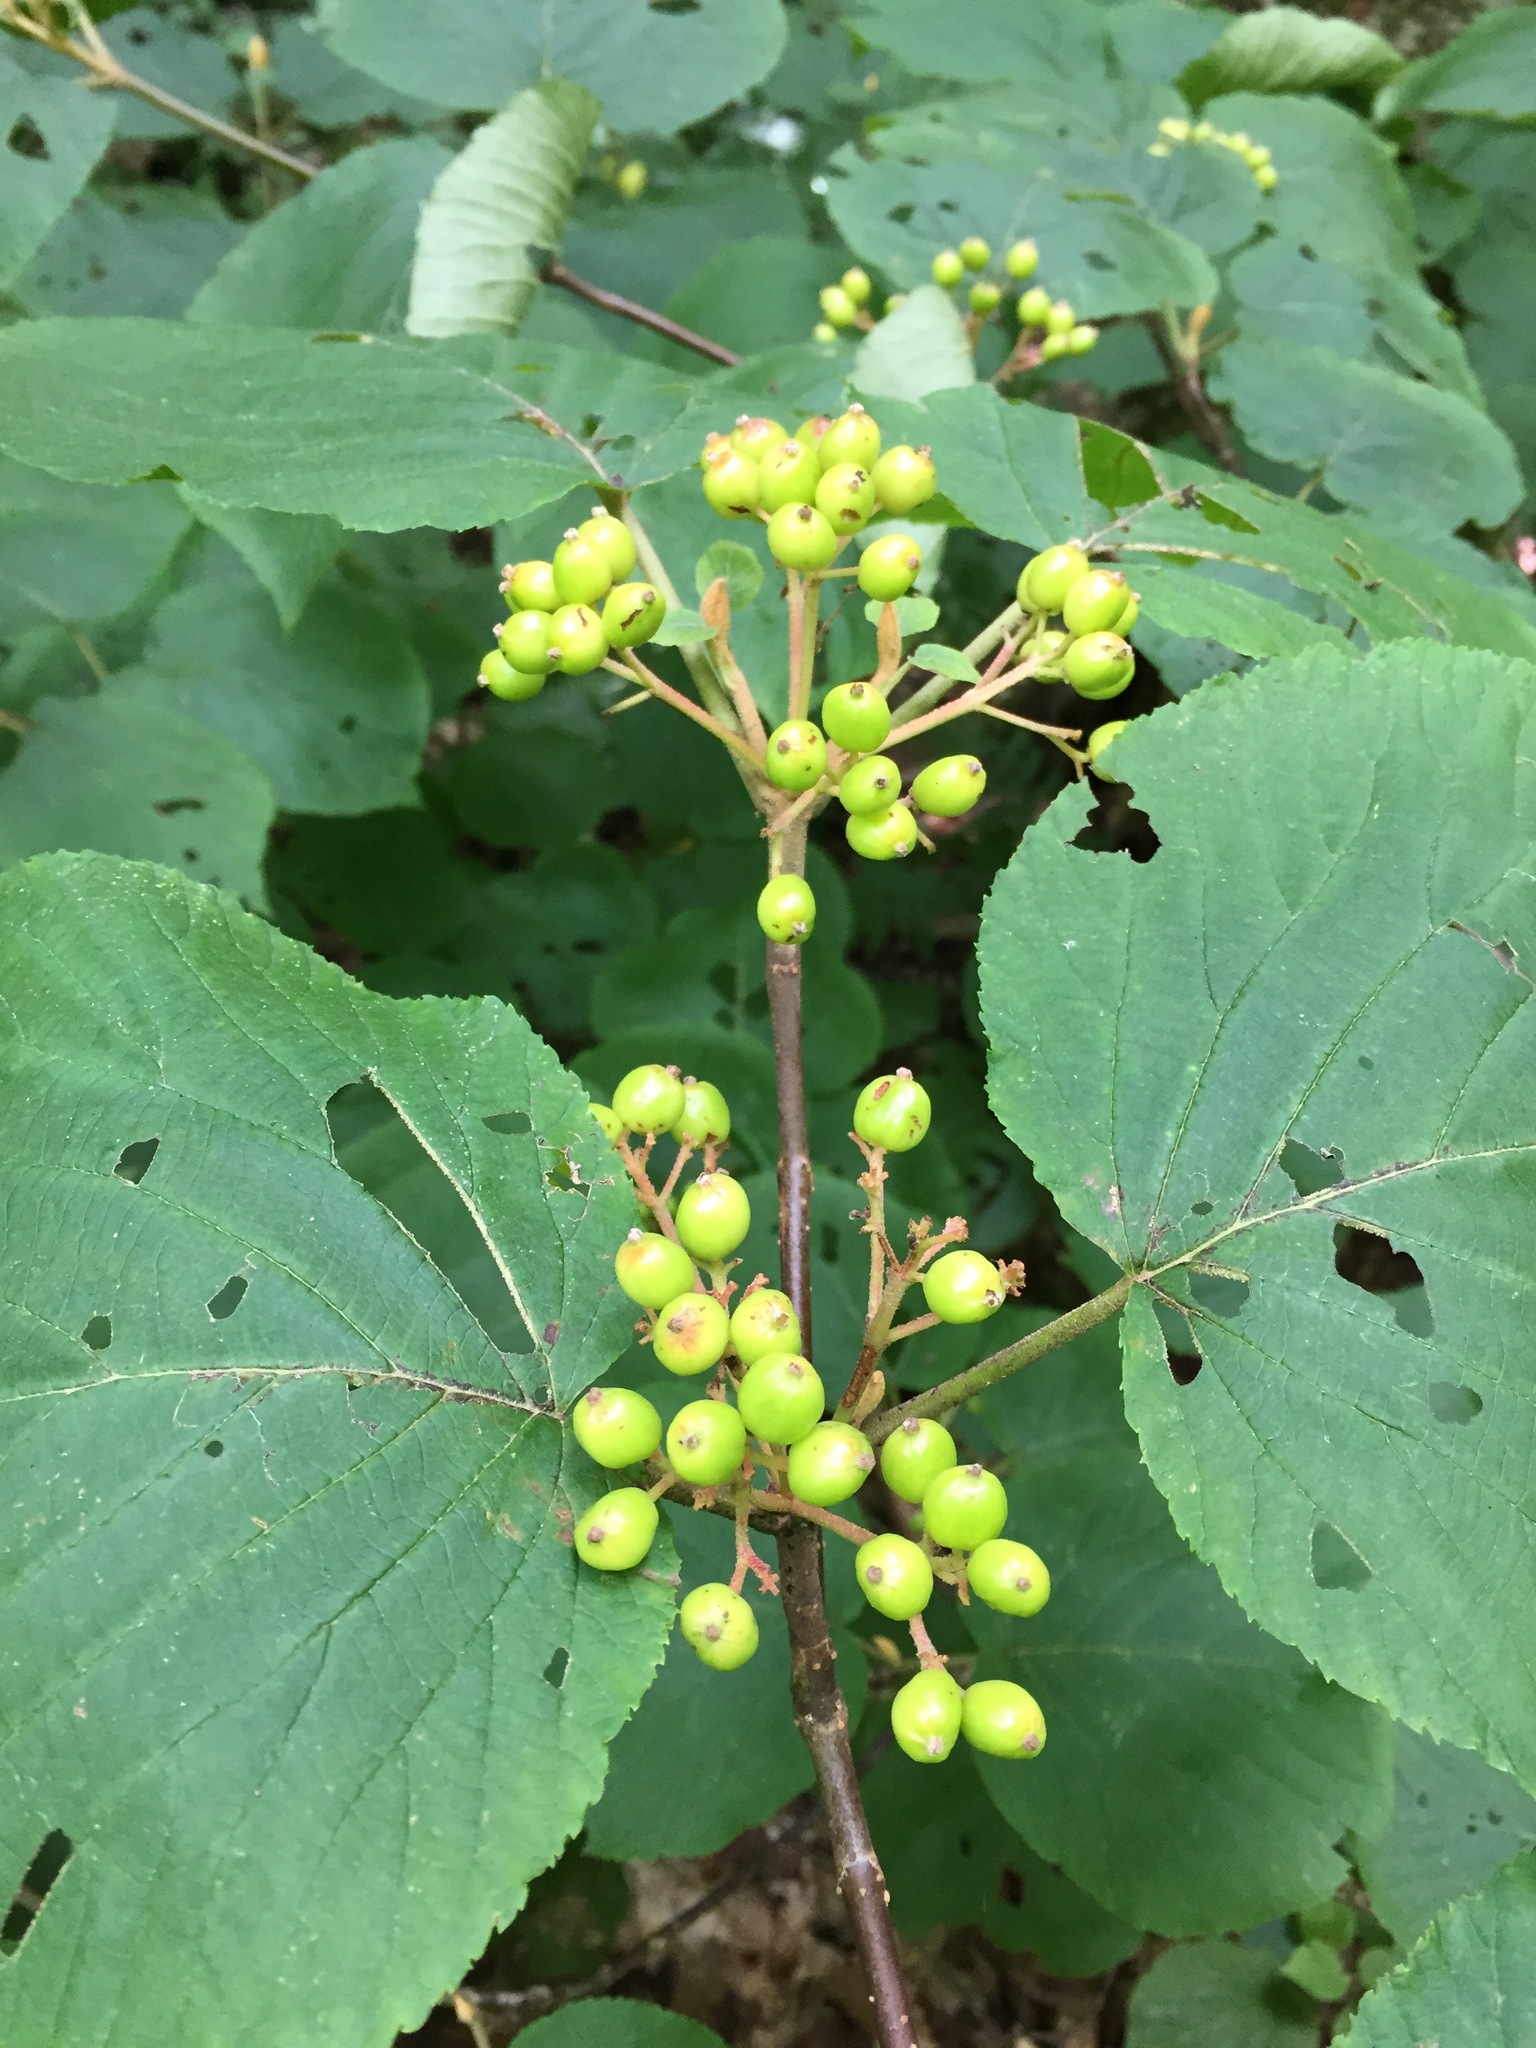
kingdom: Plantae
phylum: Tracheophyta
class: Magnoliopsida
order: Dipsacales
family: Viburnaceae
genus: Viburnum
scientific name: Viburnum lantanoides
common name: Hobblebush
